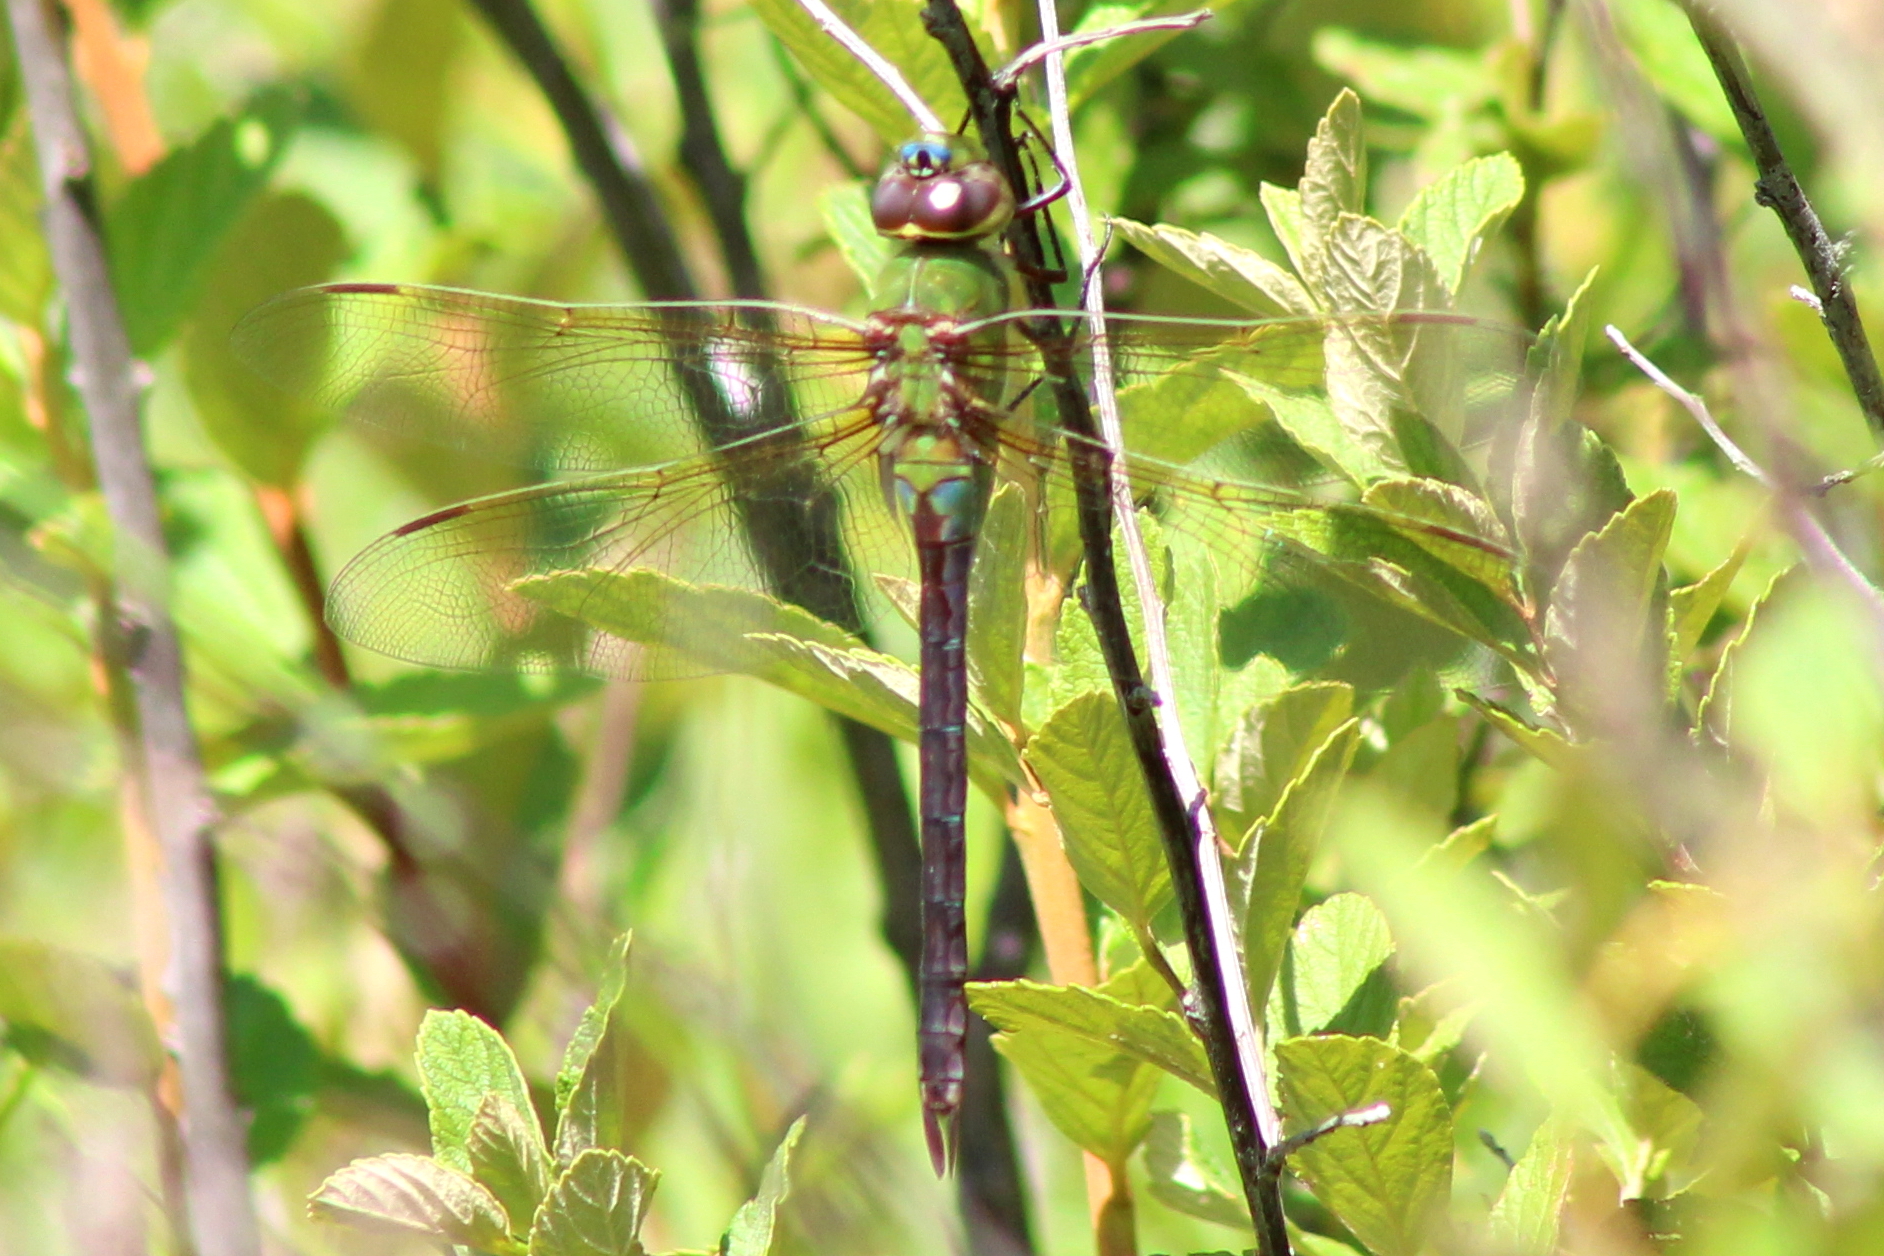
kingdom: Animalia
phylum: Arthropoda
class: Insecta
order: Odonata
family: Aeshnidae
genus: Anax
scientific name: Anax junius
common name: Common green darner
